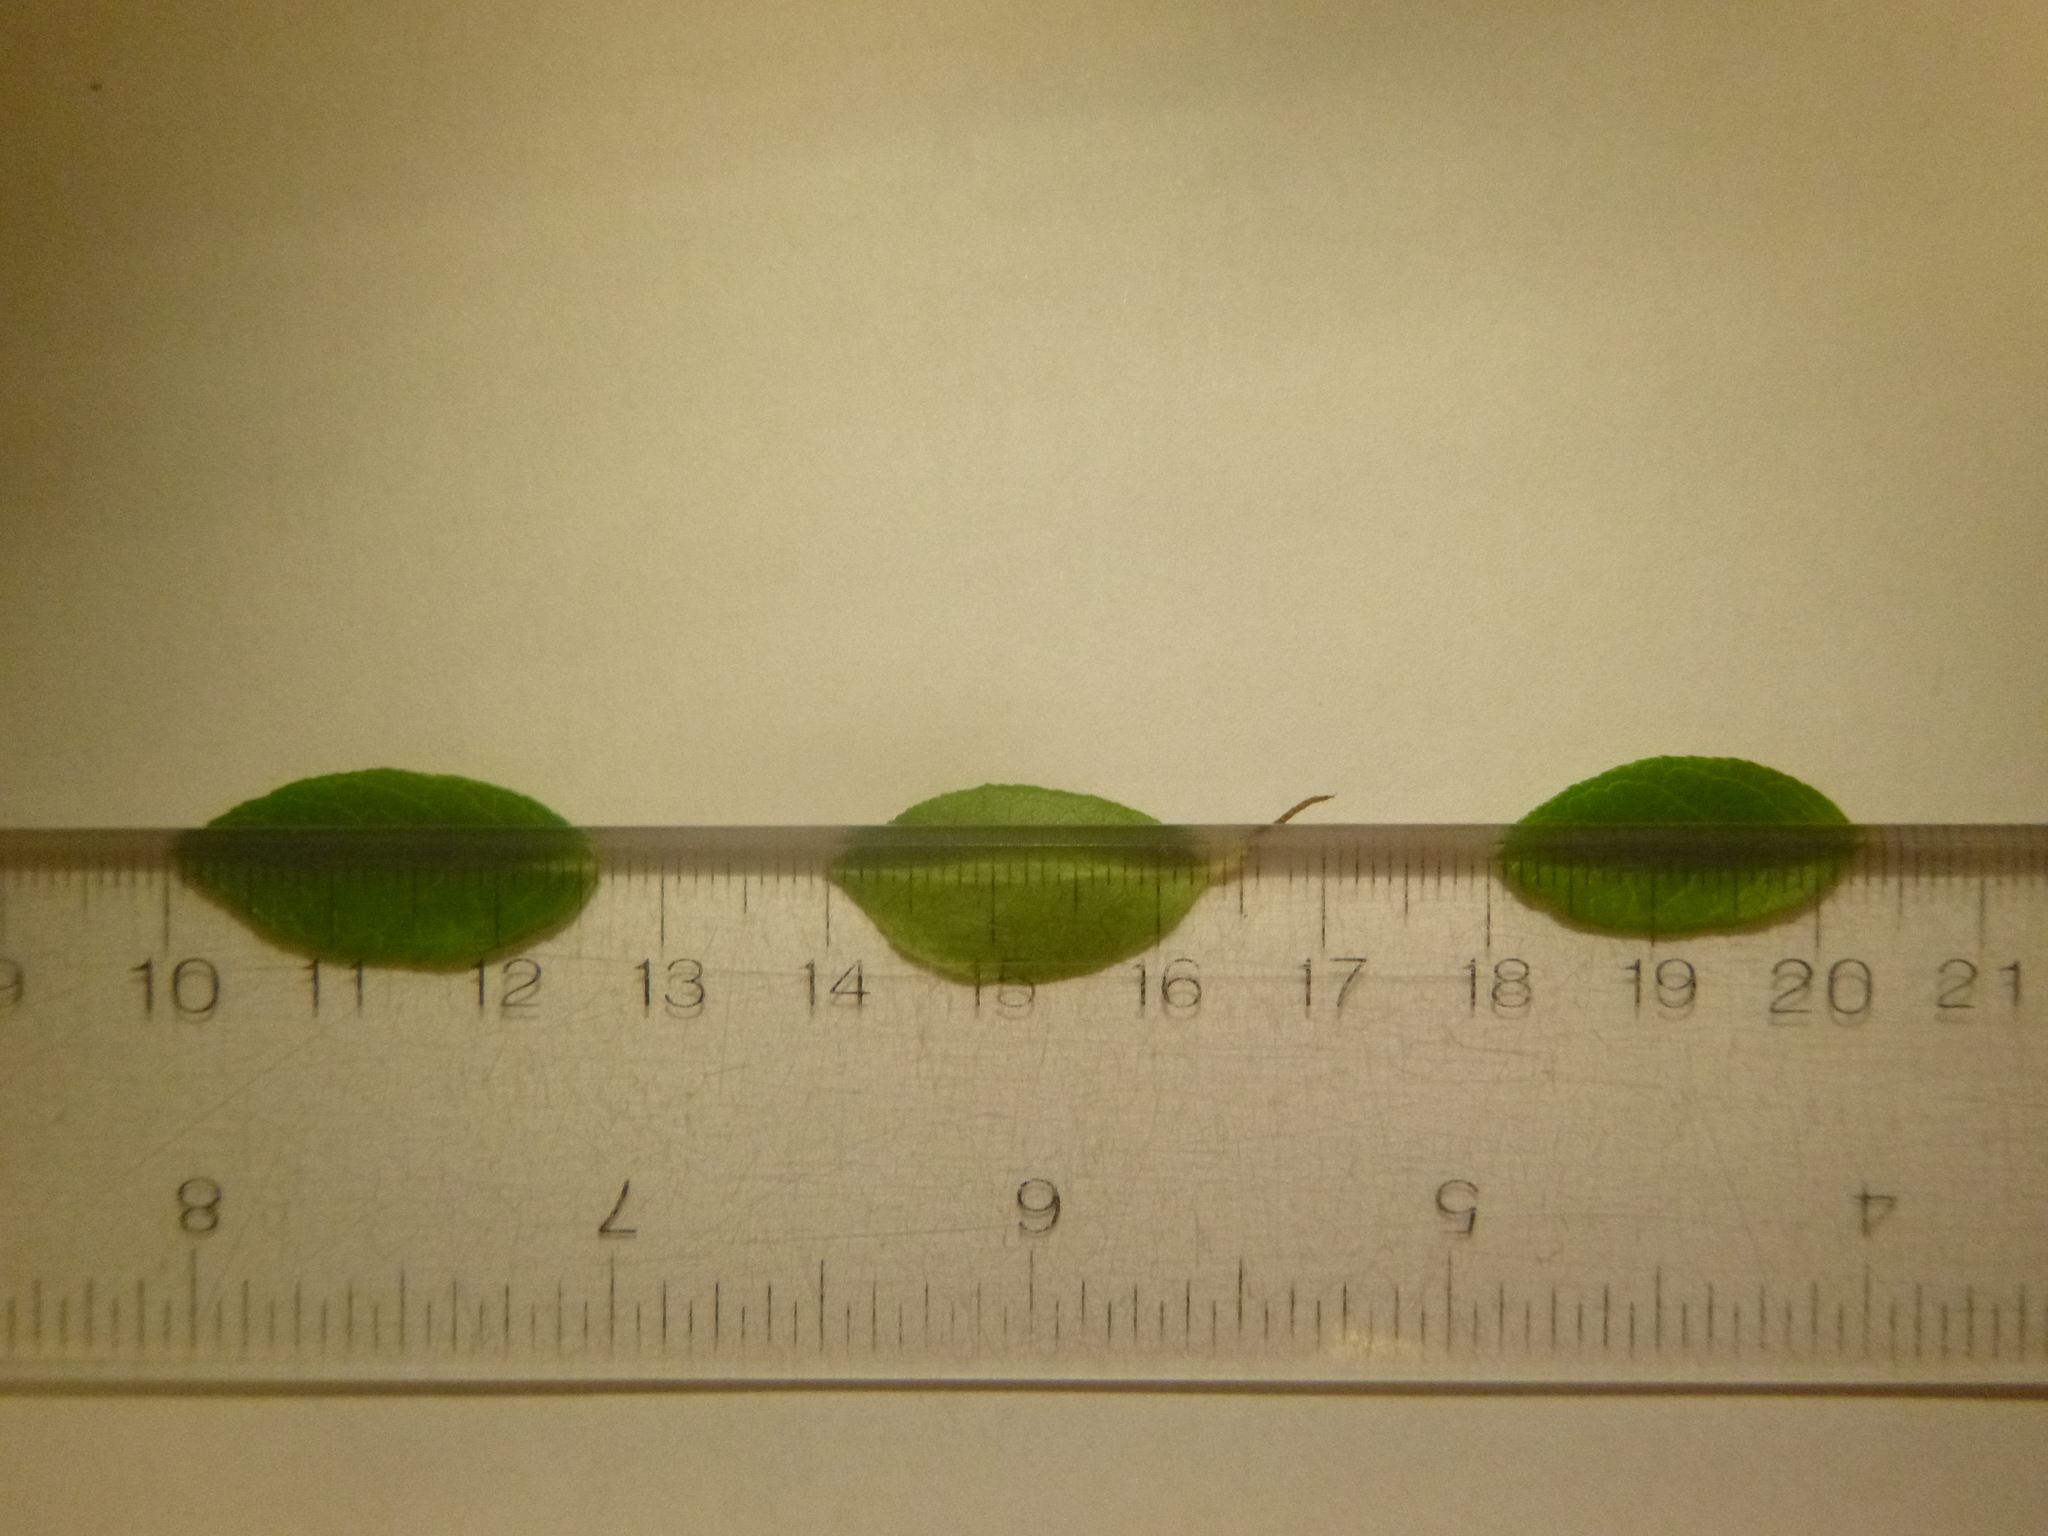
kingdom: Plantae
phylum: Tracheophyta
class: Magnoliopsida
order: Ericales
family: Ericaceae
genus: Vaccinium
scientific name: Vaccinium corymbosum
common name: Blueberry
